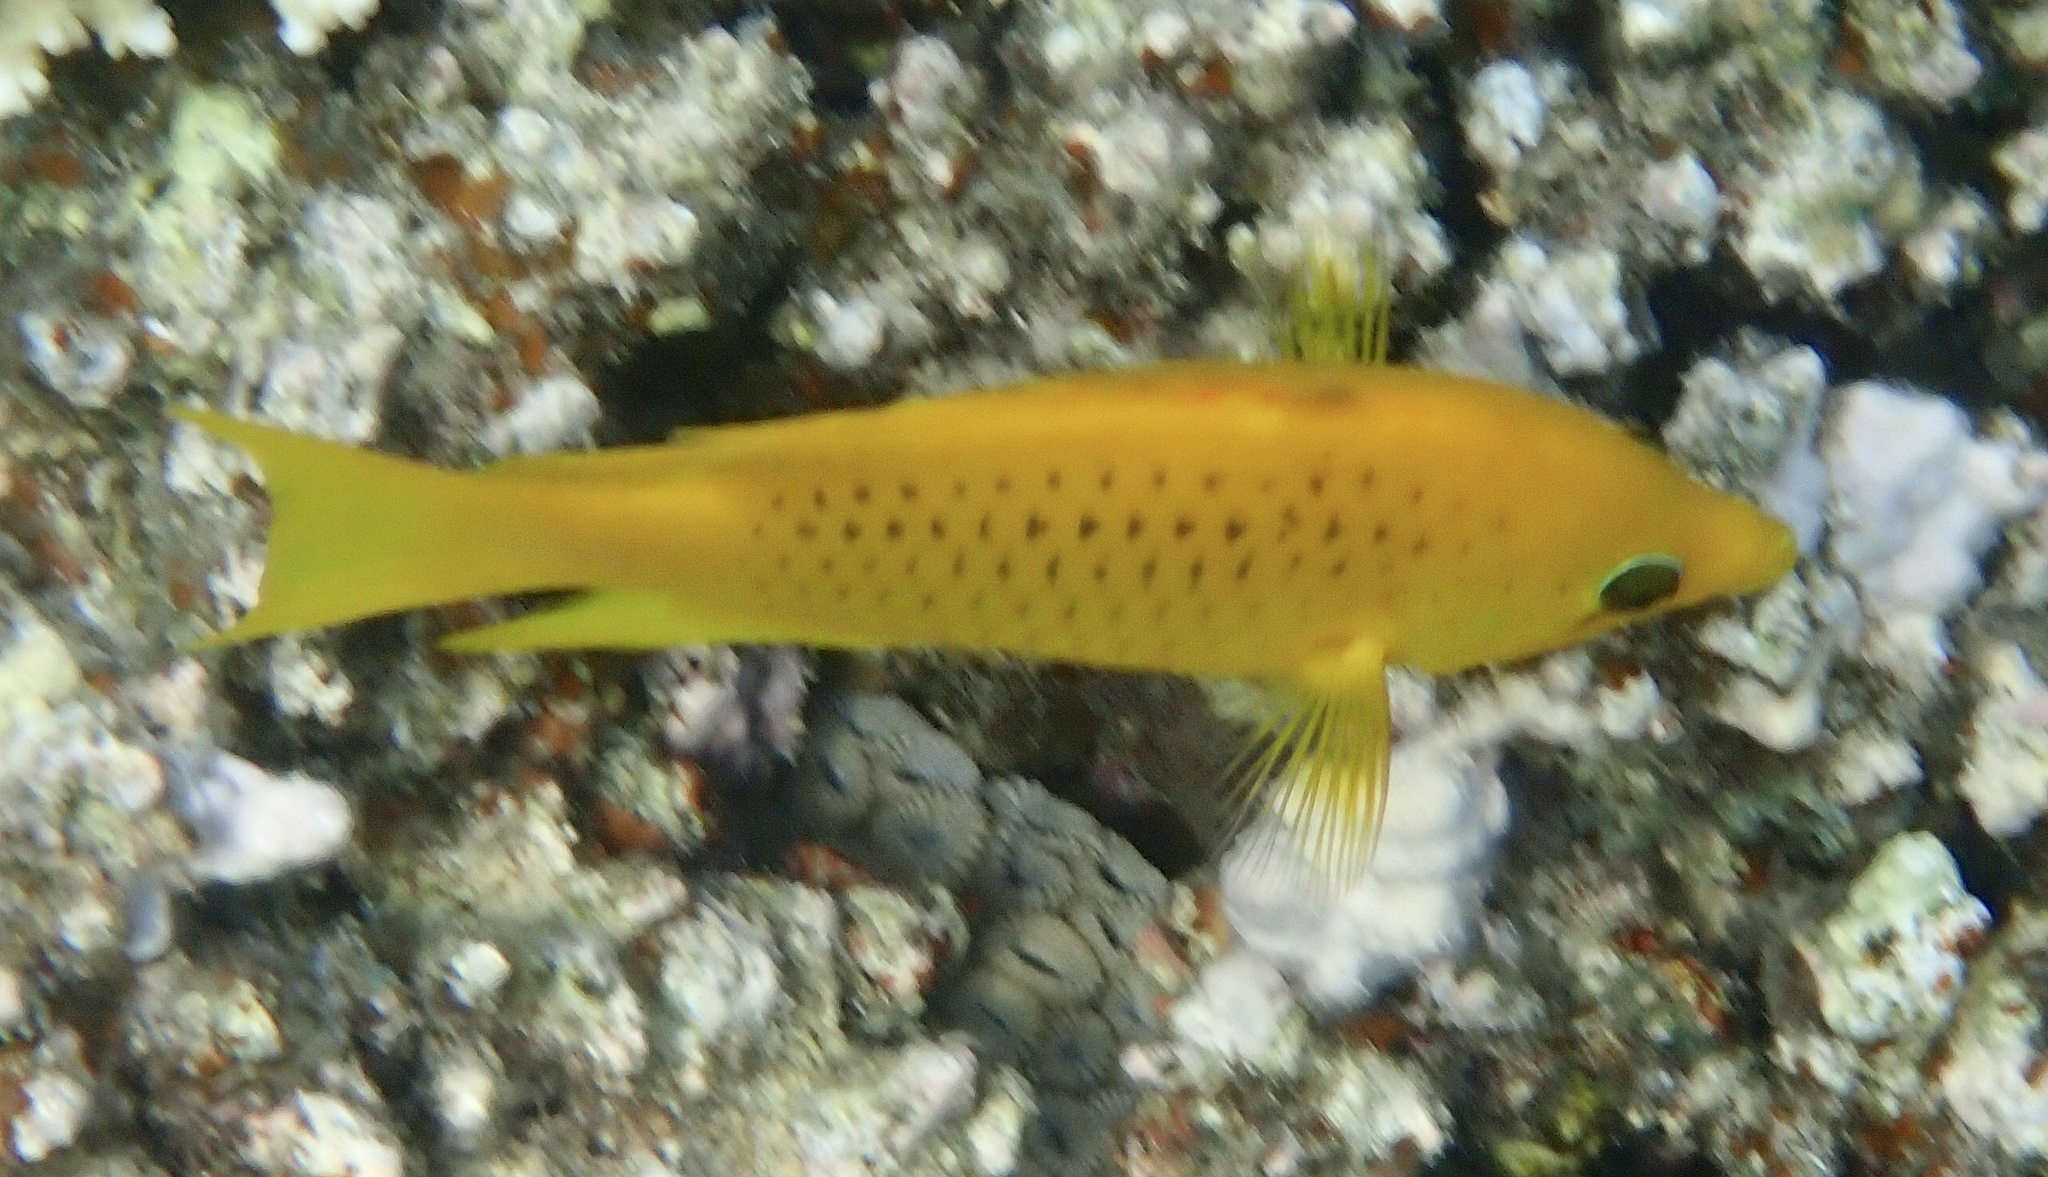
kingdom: Animalia
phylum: Chordata
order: Perciformes
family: Labridae
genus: Epibulus
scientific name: Epibulus insidiator
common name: Slingjaw wrasse
